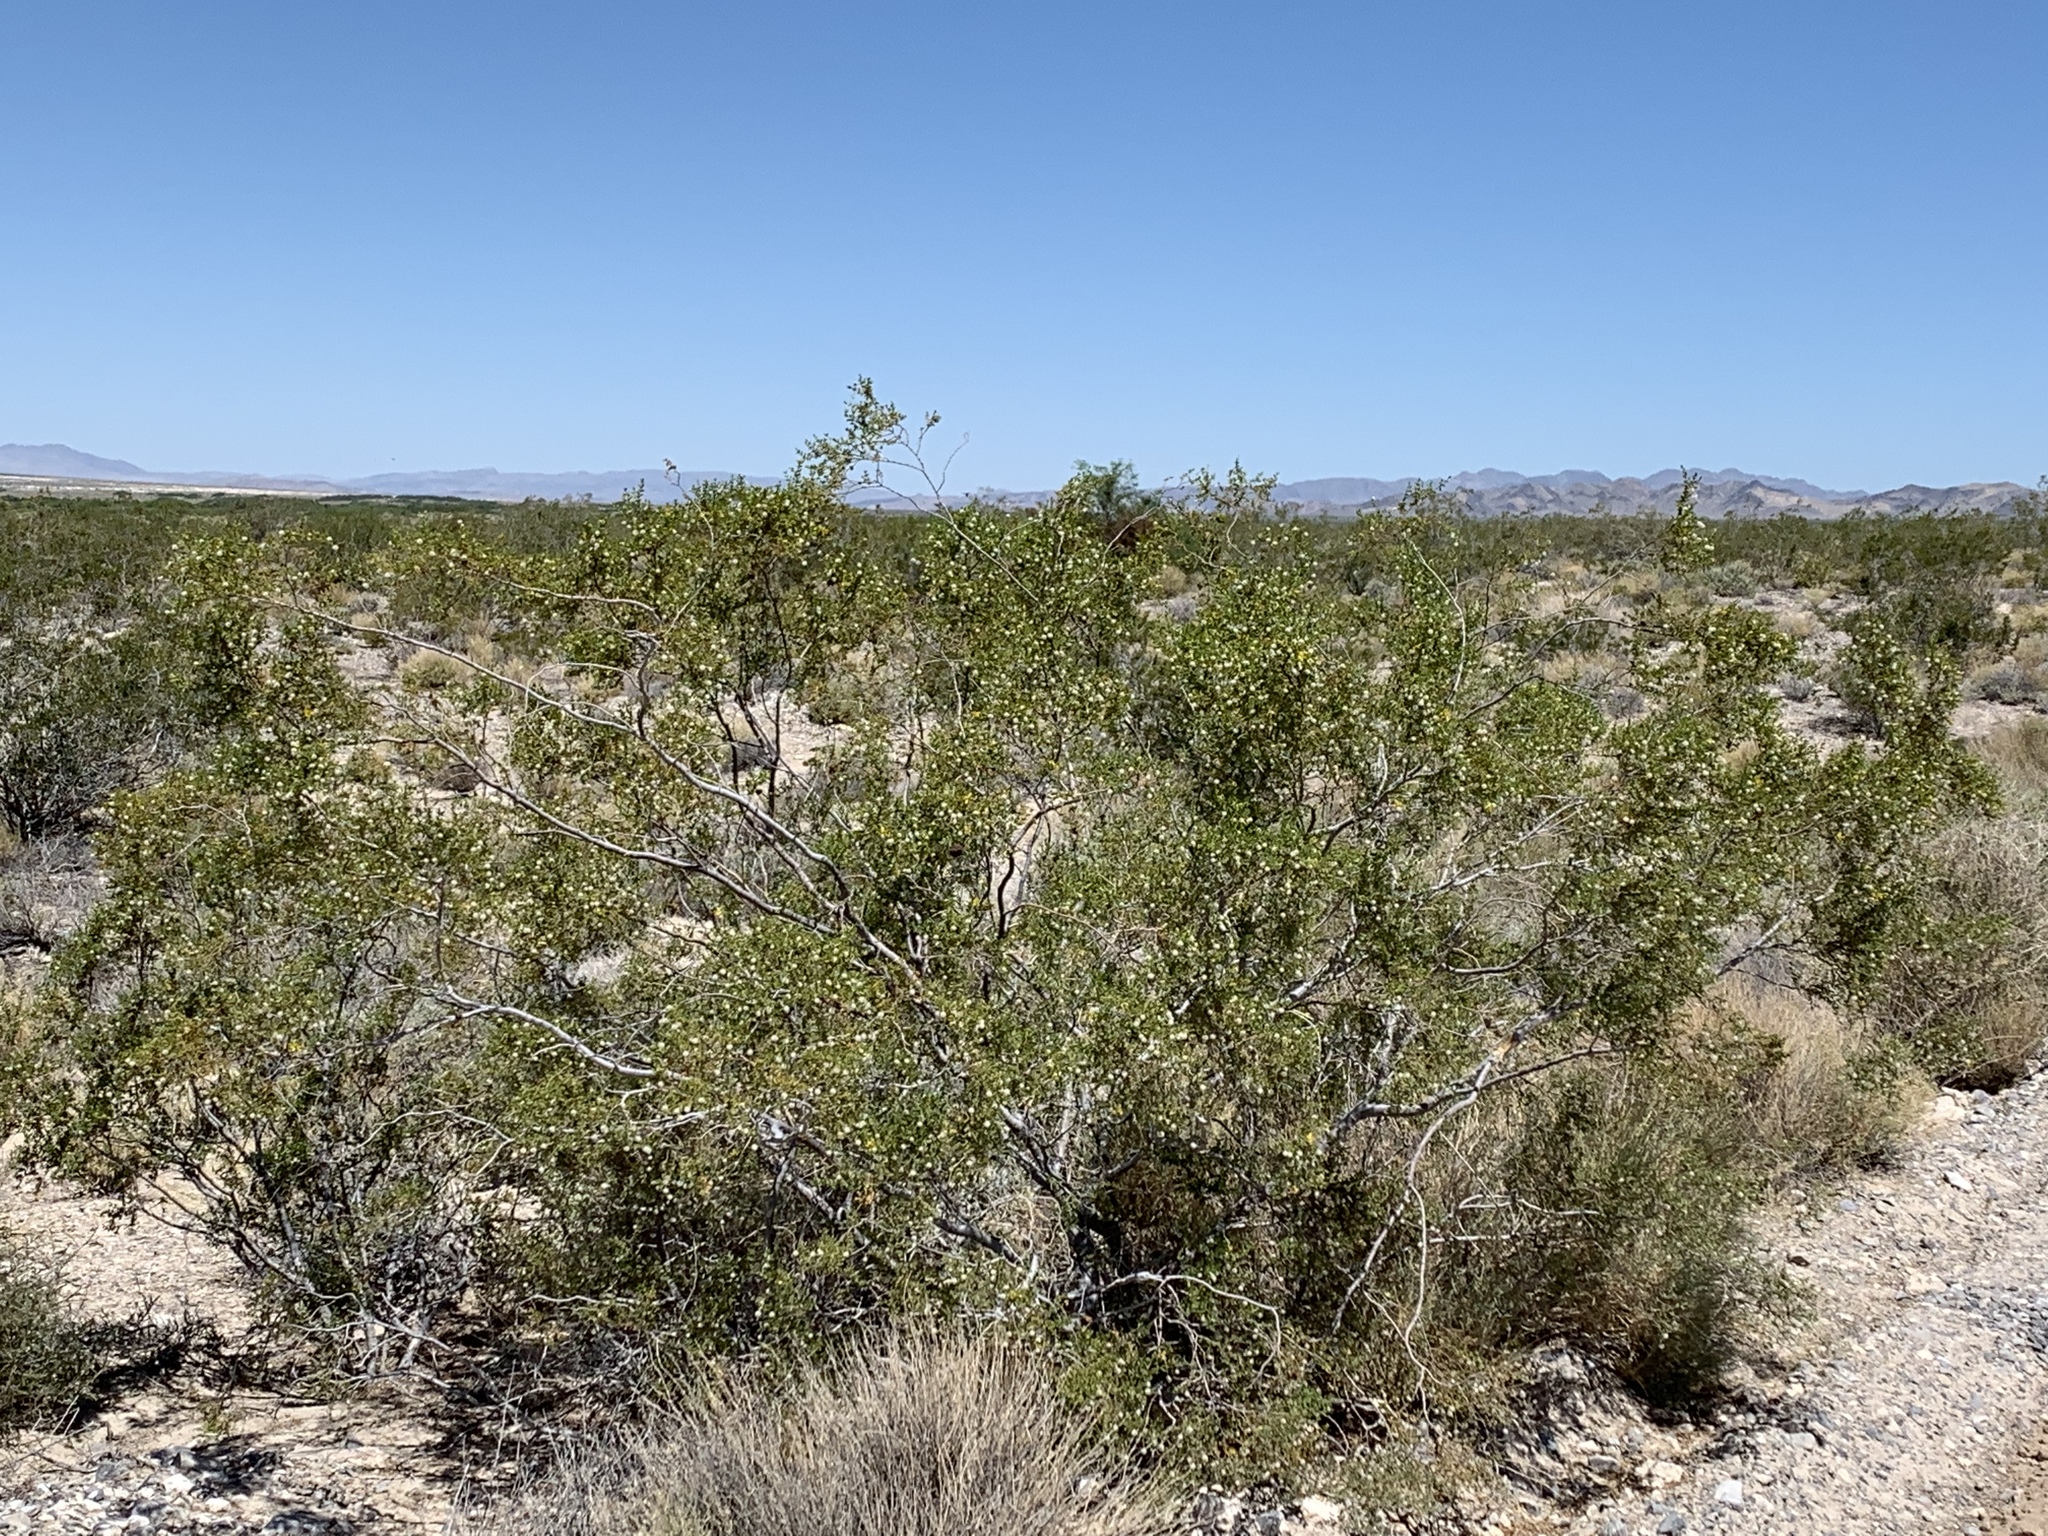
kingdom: Plantae
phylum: Tracheophyta
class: Magnoliopsida
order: Zygophyllales
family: Zygophyllaceae
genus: Larrea
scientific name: Larrea tridentata
